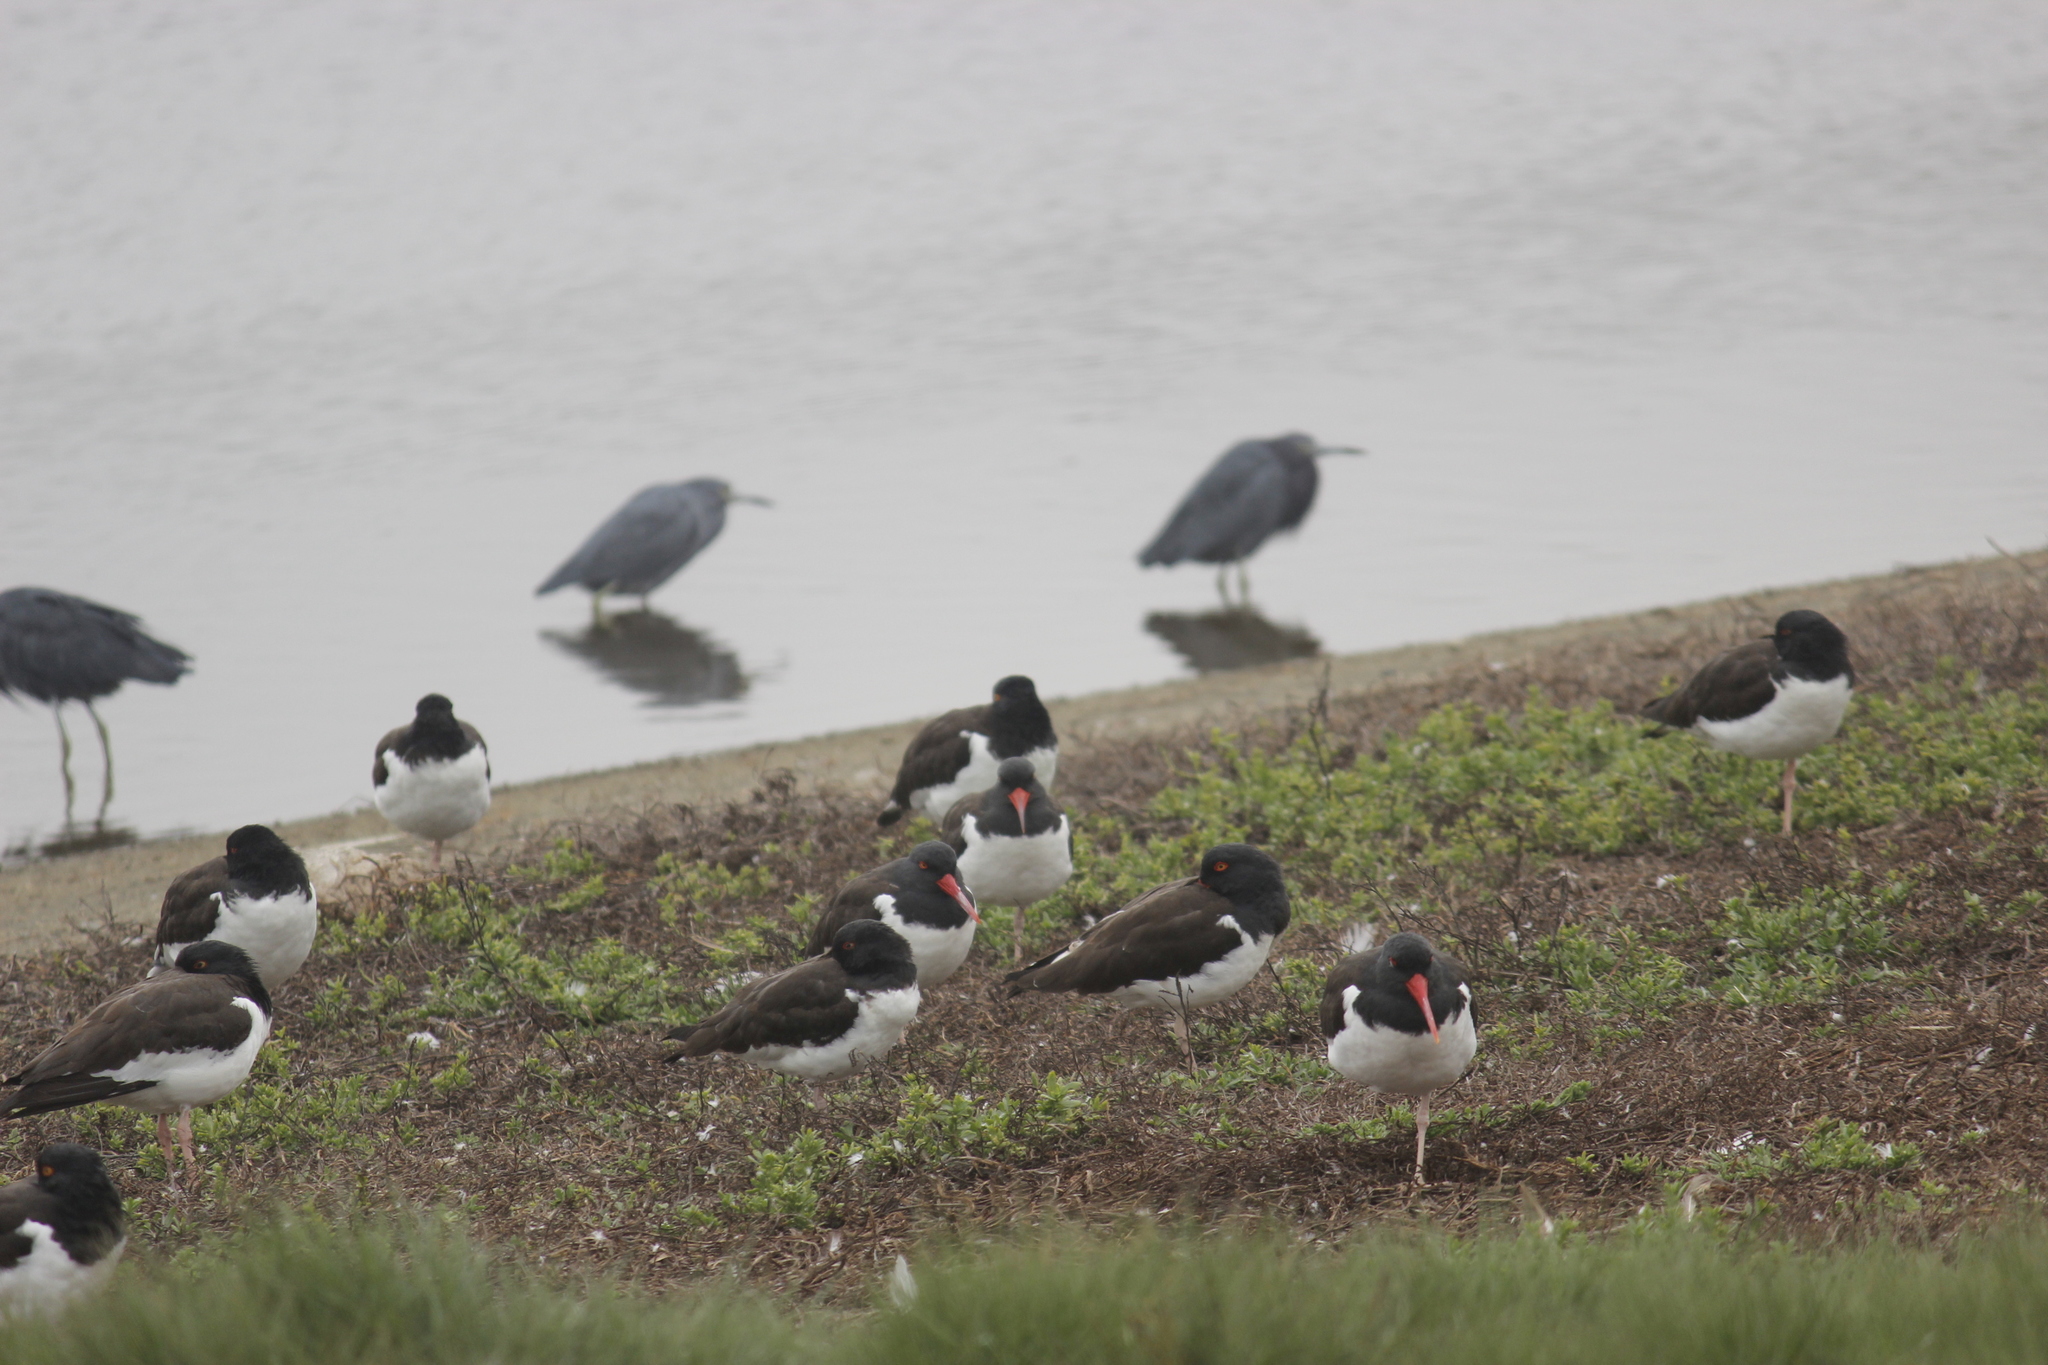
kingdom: Animalia
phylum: Chordata
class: Aves
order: Charadriiformes
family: Haematopodidae
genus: Haematopus
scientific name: Haematopus palliatus
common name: American oystercatcher
